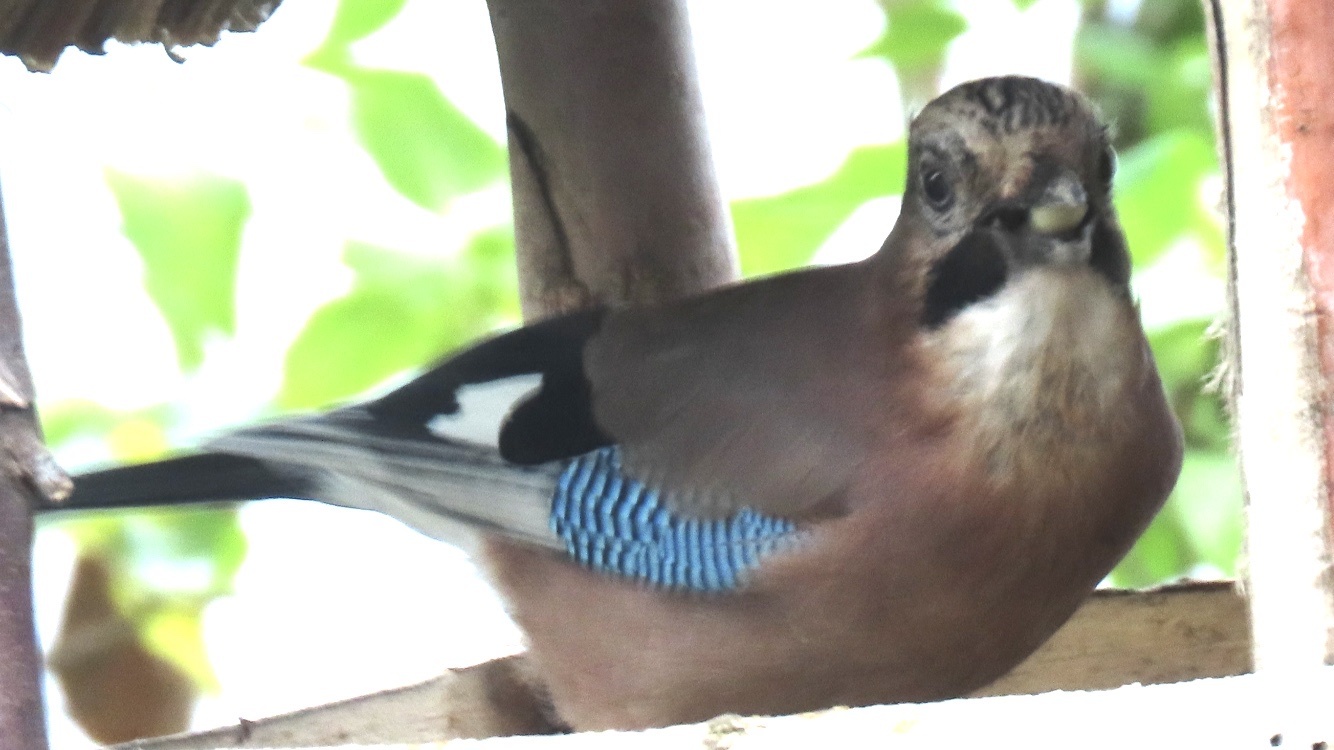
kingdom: Animalia
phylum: Chordata
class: Aves
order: Passeriformes
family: Corvidae
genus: Garrulus
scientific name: Garrulus glandarius
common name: Eurasian jay
